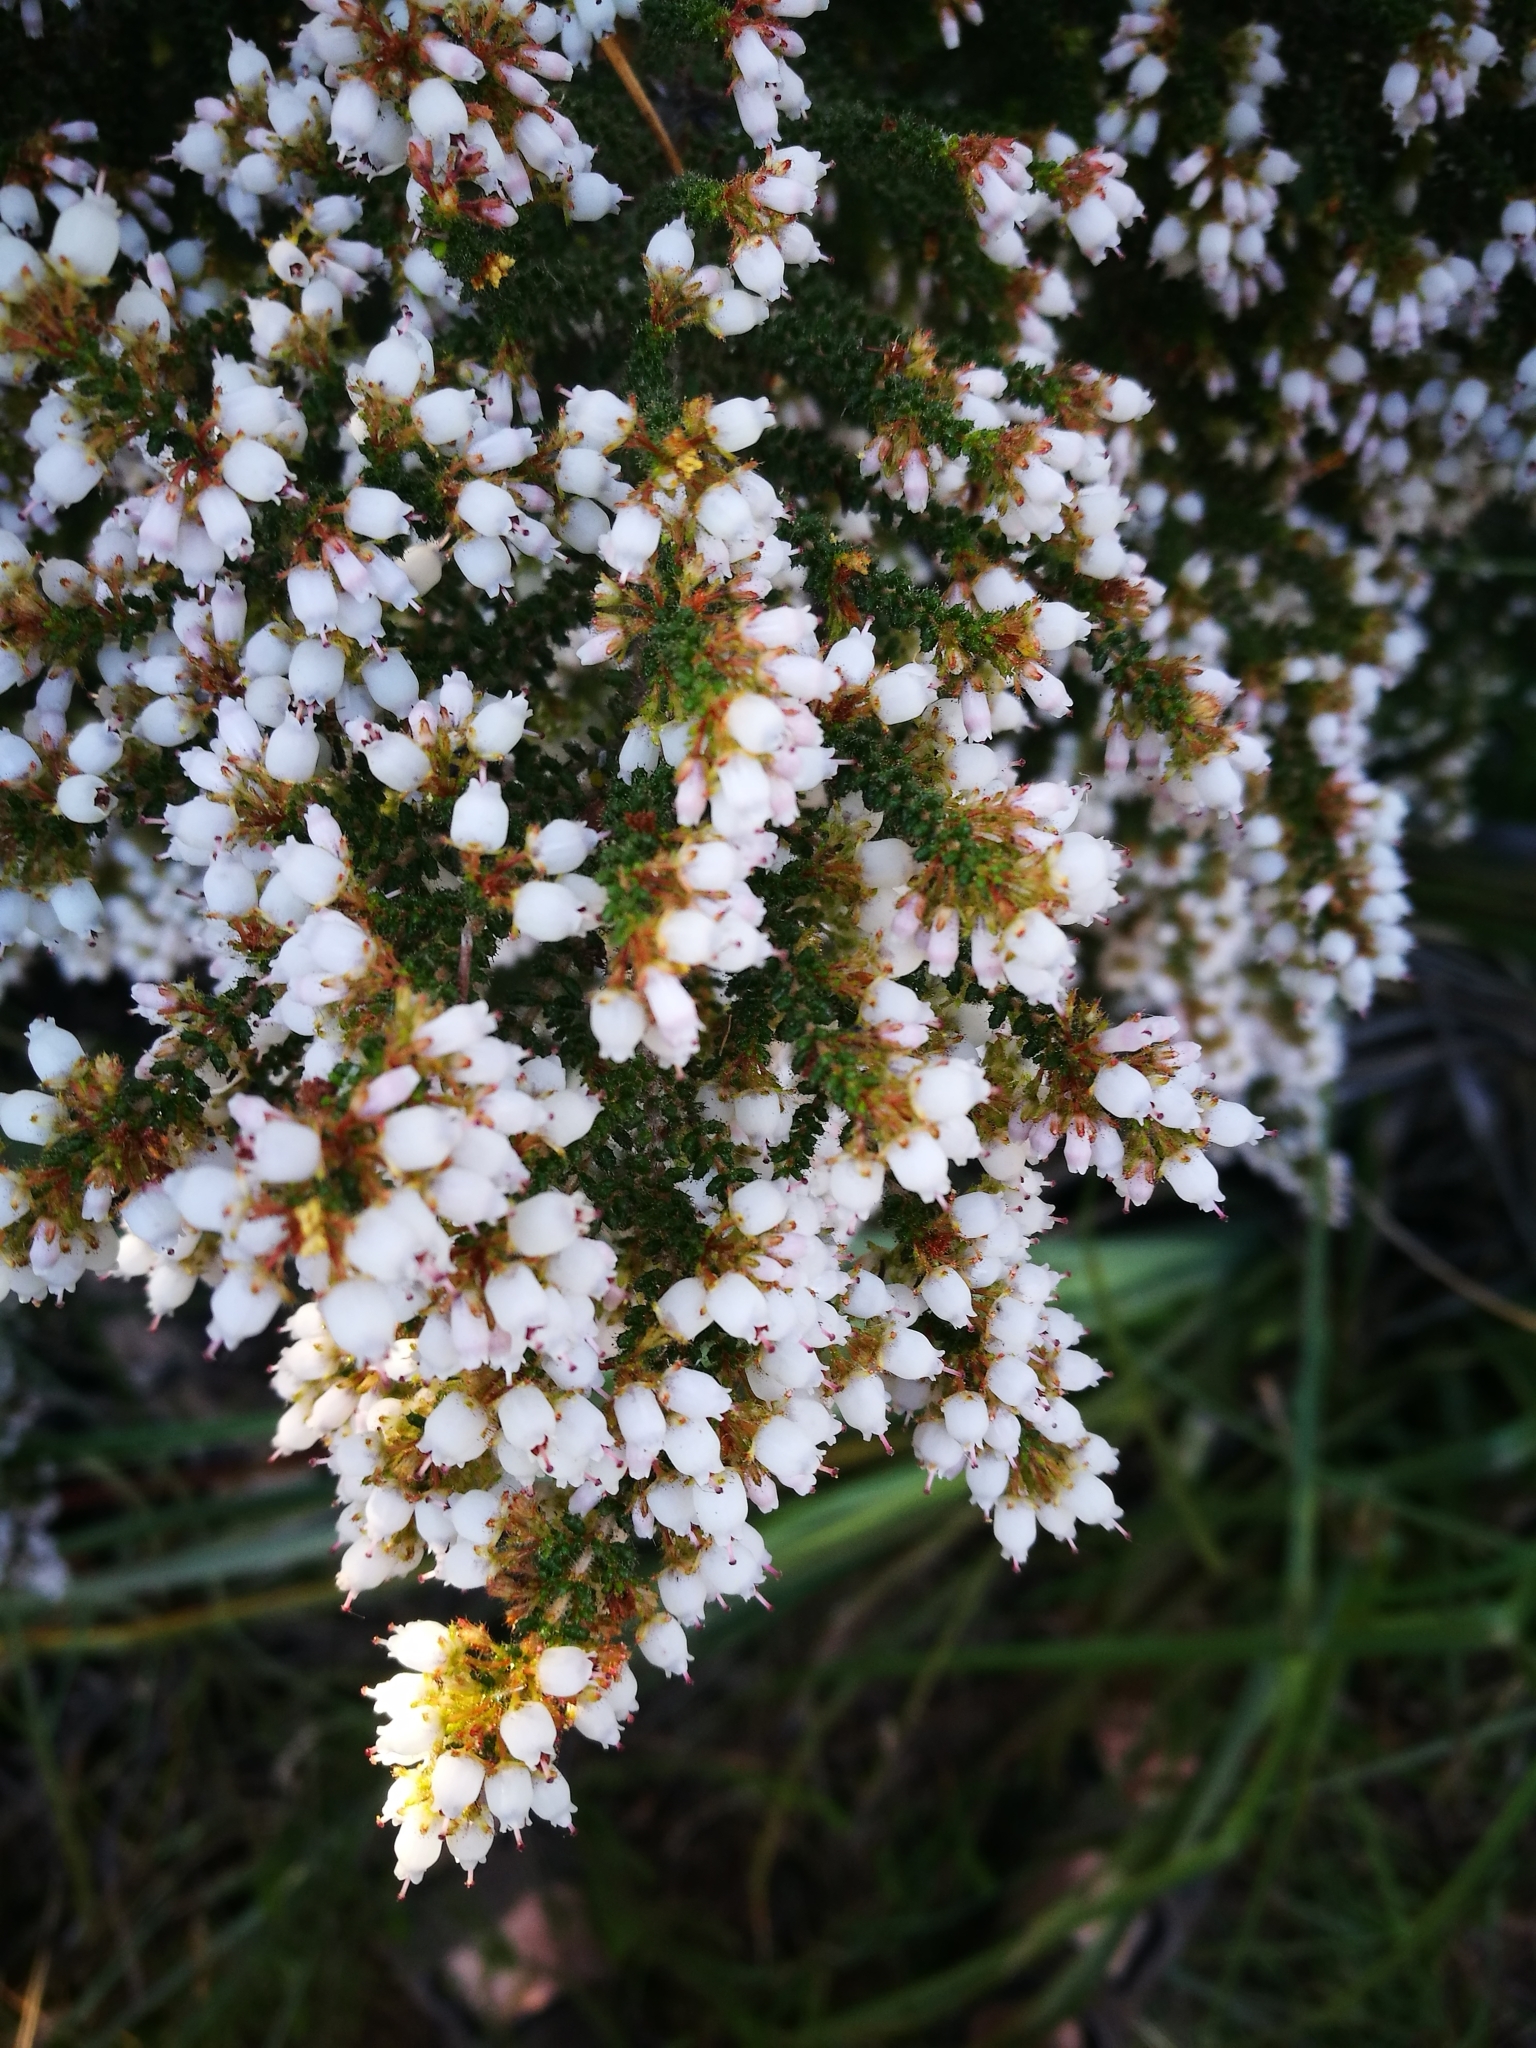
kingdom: Plantae
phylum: Tracheophyta
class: Magnoliopsida
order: Ericales
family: Ericaceae
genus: Erica
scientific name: Erica scabriuscula
